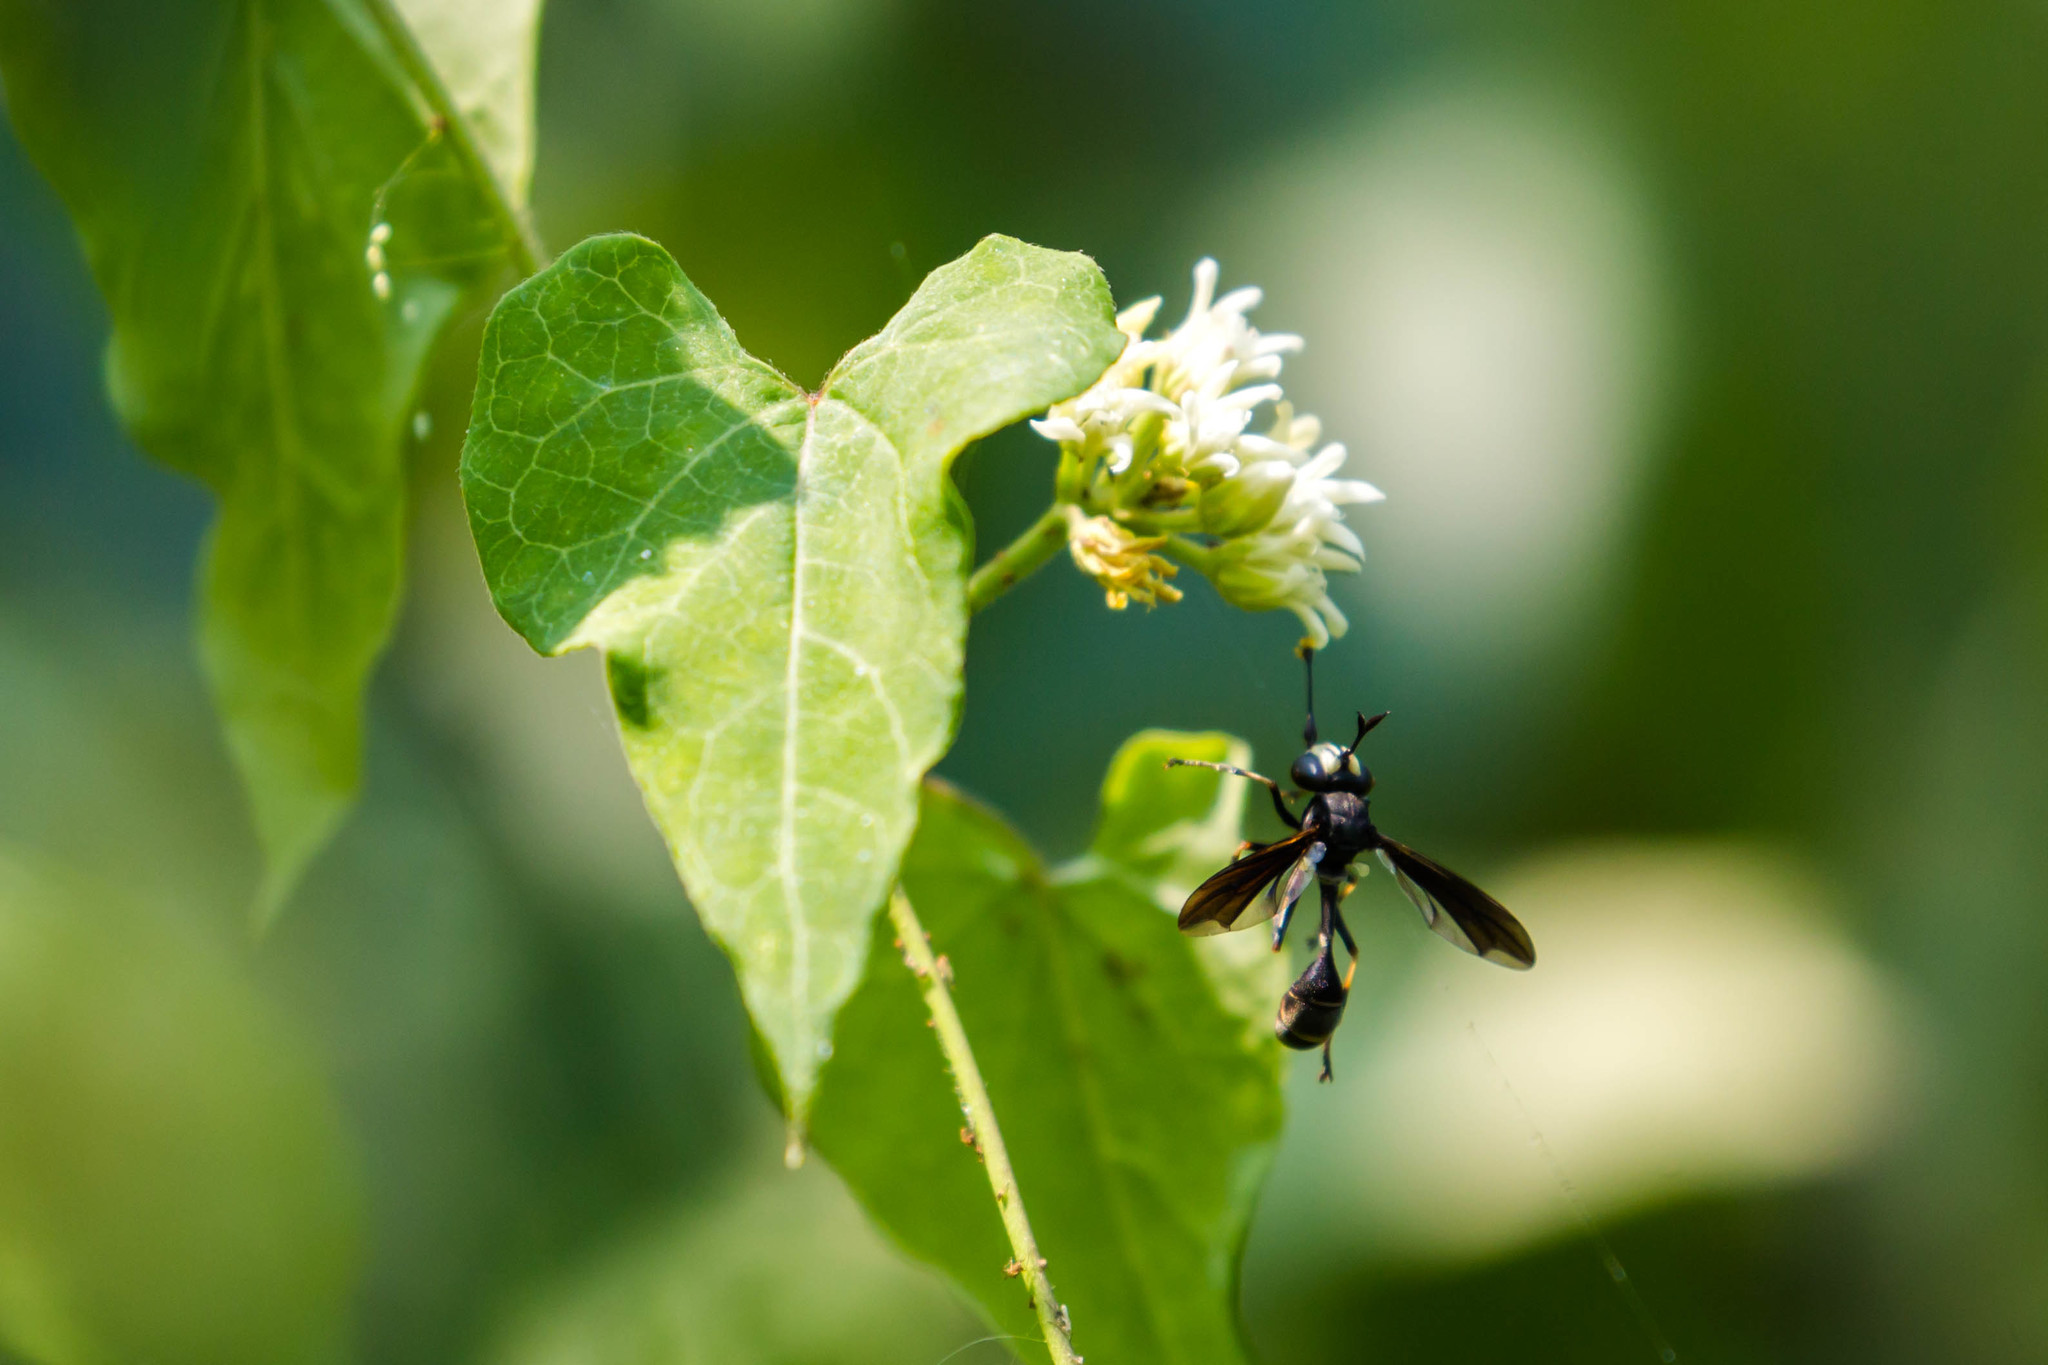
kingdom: Animalia
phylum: Arthropoda
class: Insecta
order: Diptera
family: Conopidae
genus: Physocephala
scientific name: Physocephala tibialis
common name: Common eastern physocephala
